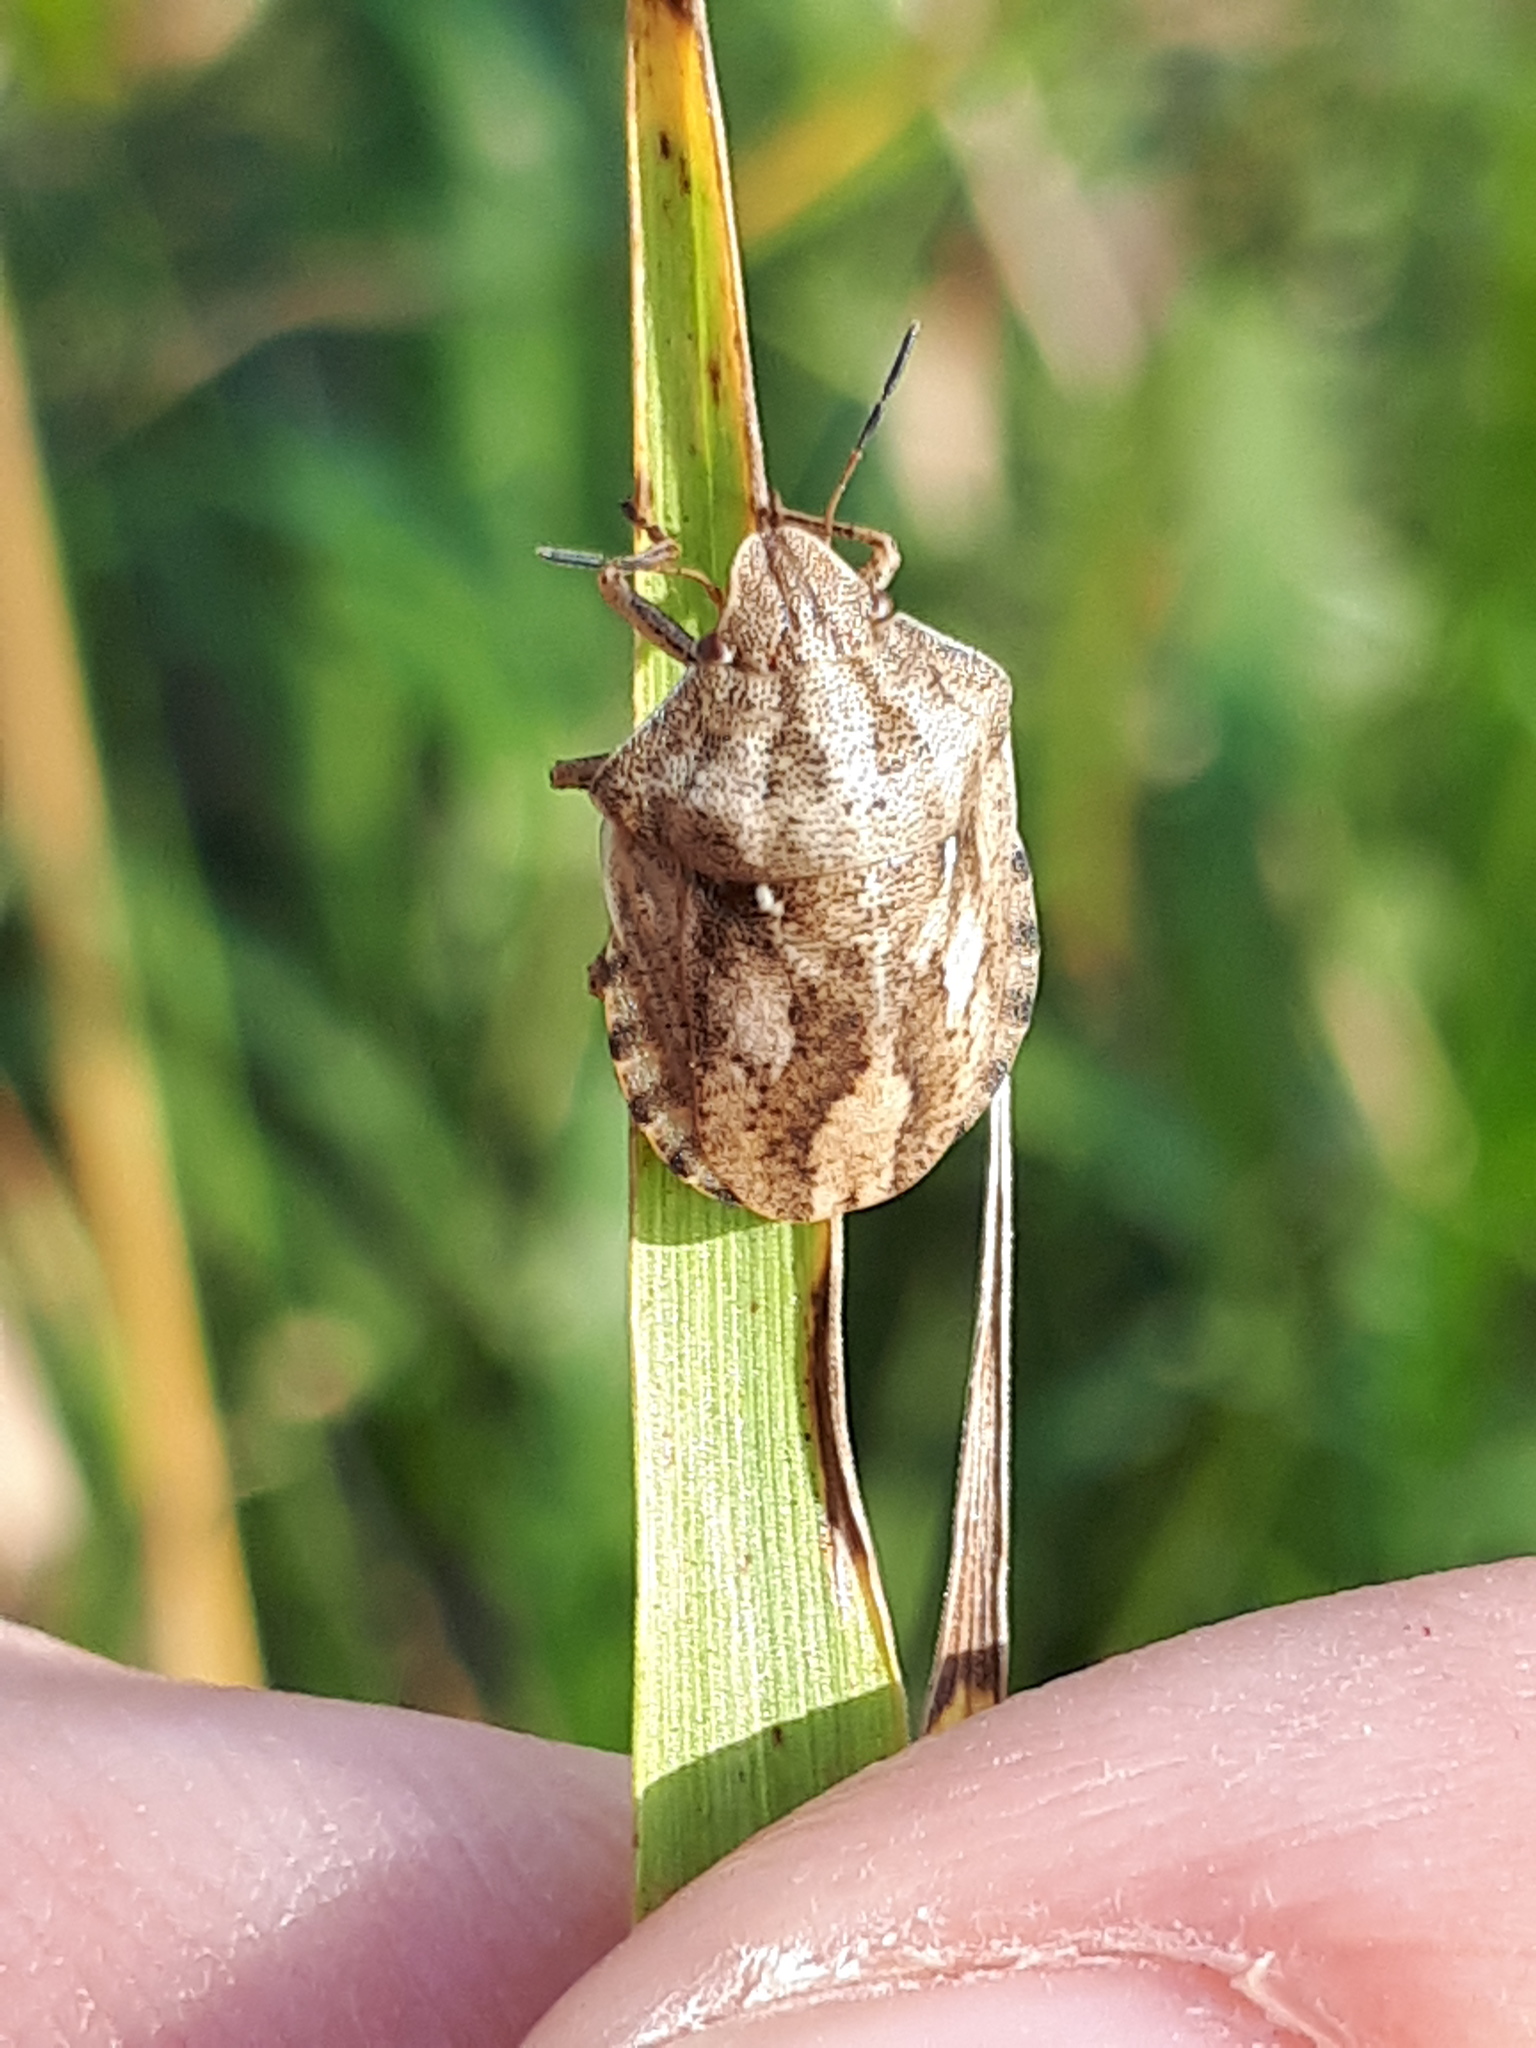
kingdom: Animalia
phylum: Arthropoda
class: Insecta
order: Hemiptera
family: Scutelleridae
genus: Eurygaster
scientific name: Eurygaster testudinaria
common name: Tortoise bug
